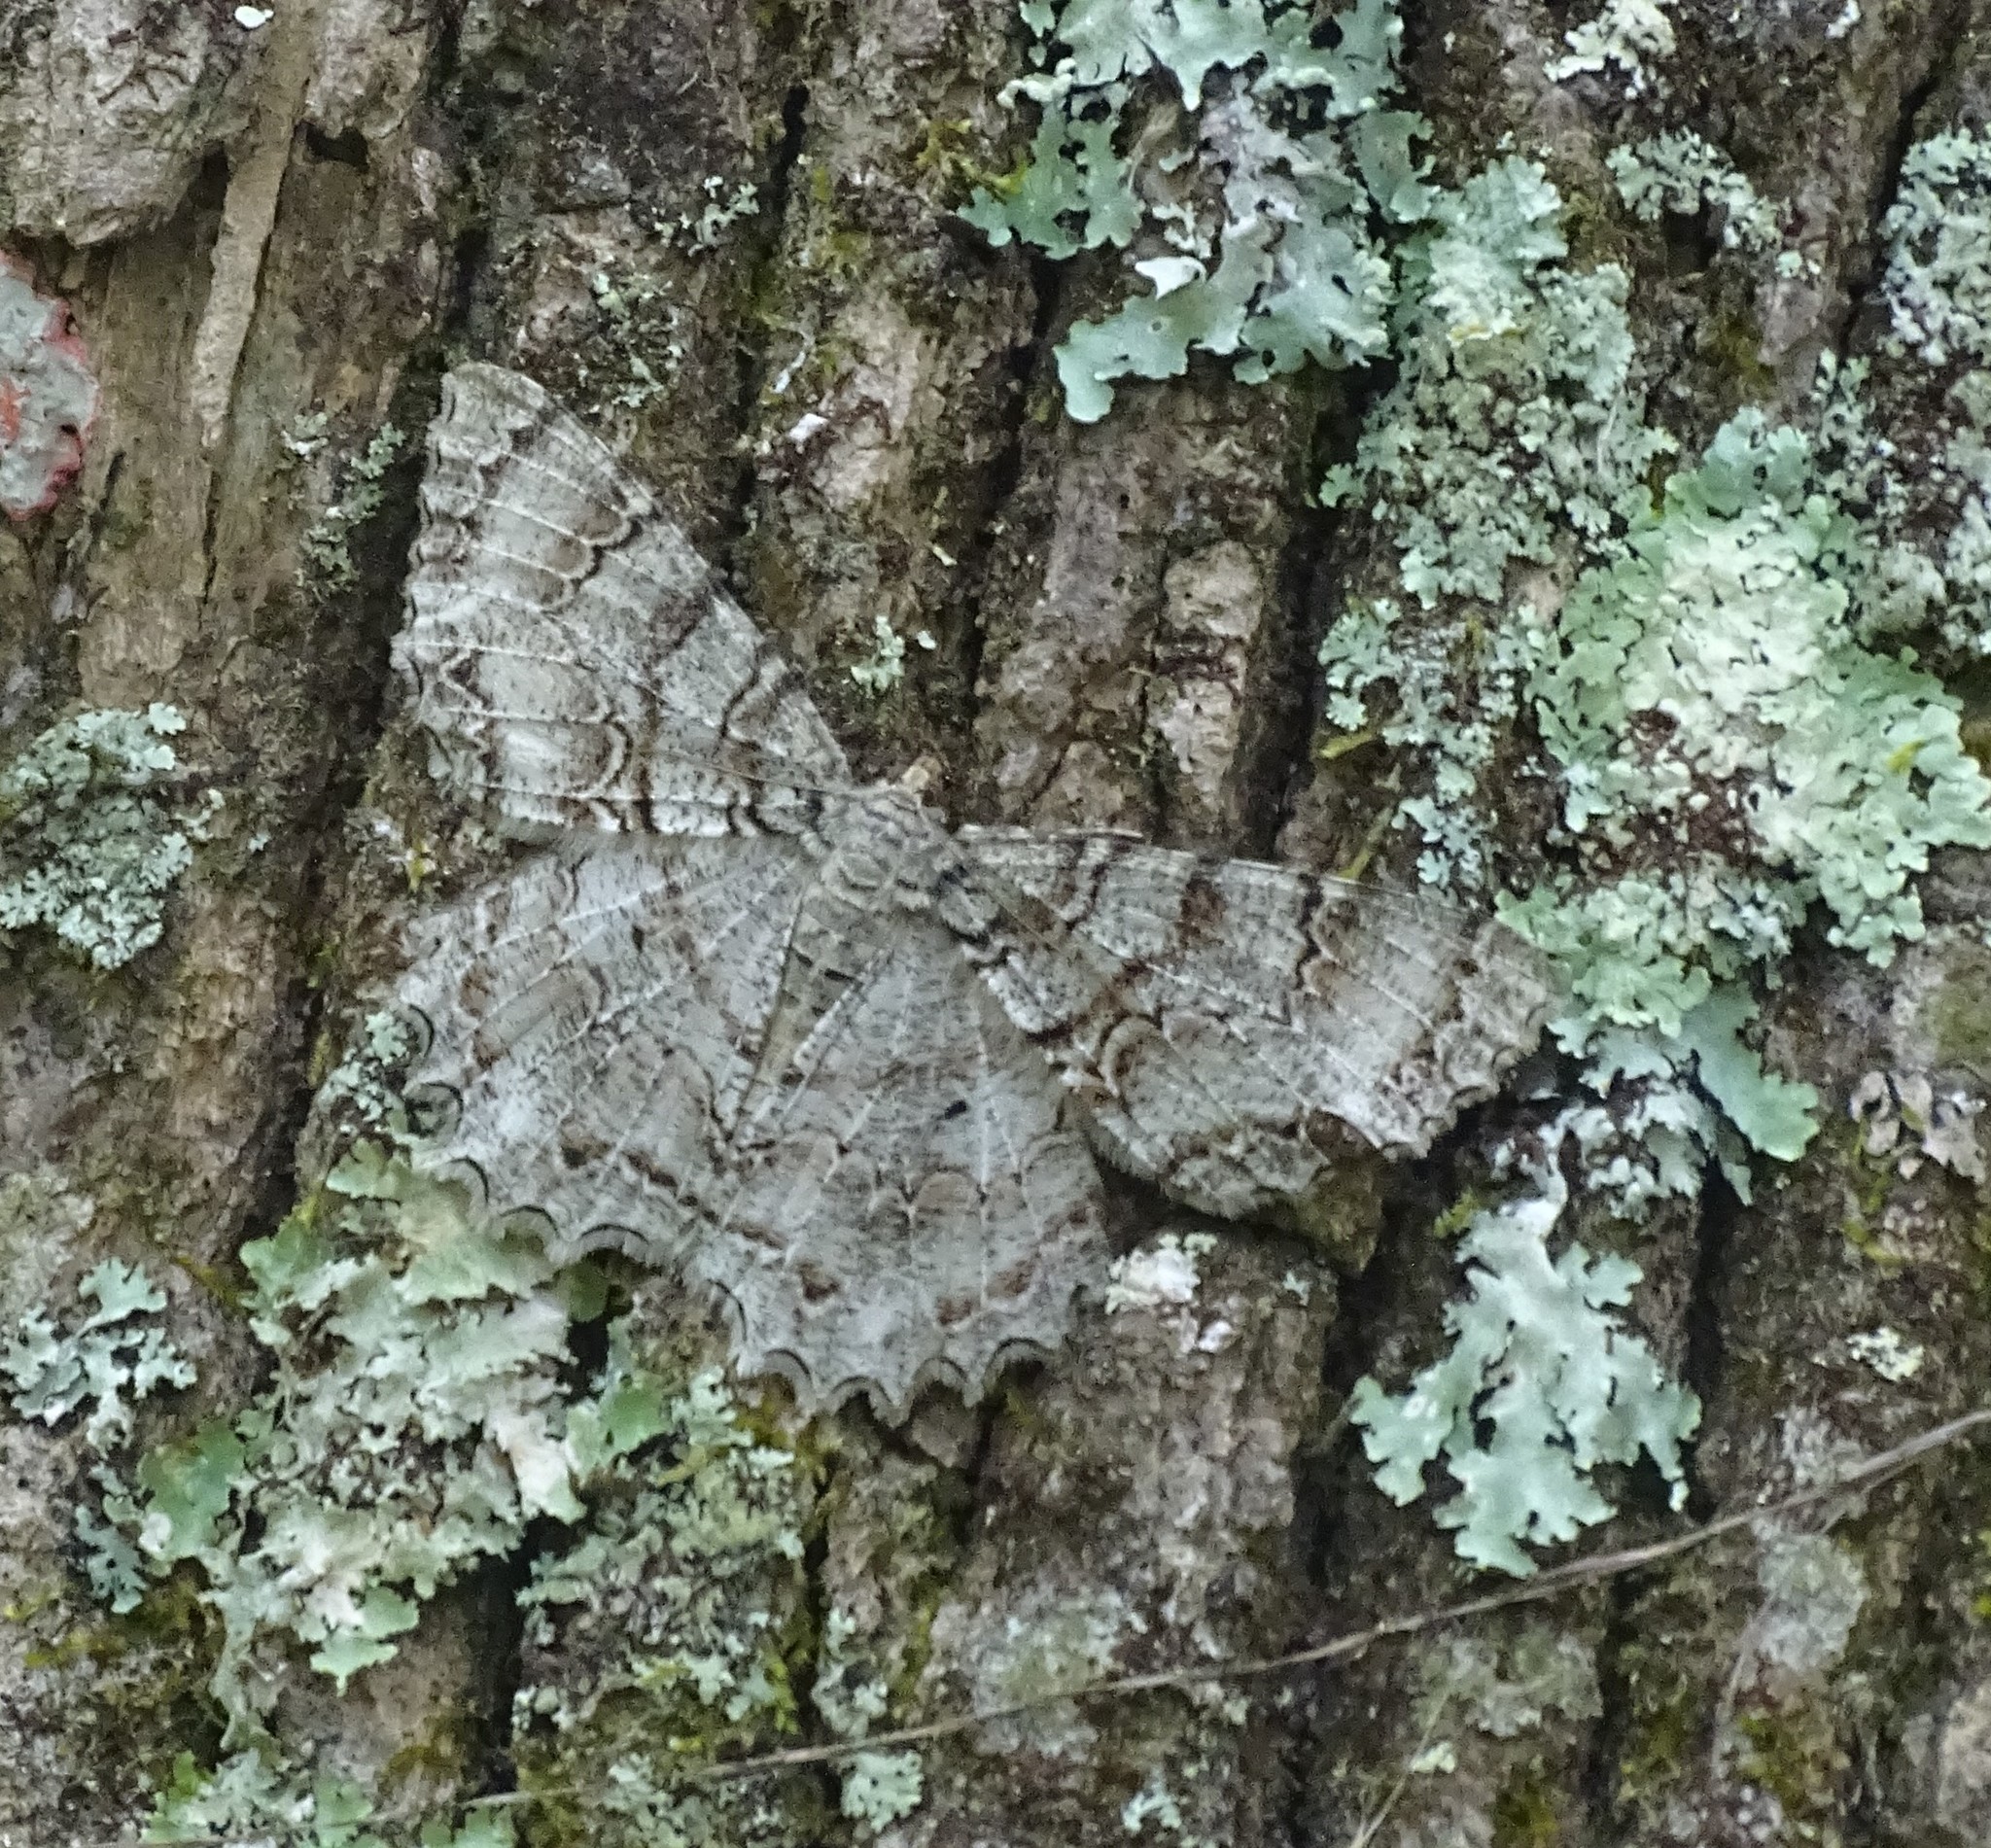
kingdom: Animalia
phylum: Arthropoda
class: Insecta
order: Lepidoptera
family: Geometridae
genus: Epimecis
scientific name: Epimecis hortaria
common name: Tulip-tree beauty
